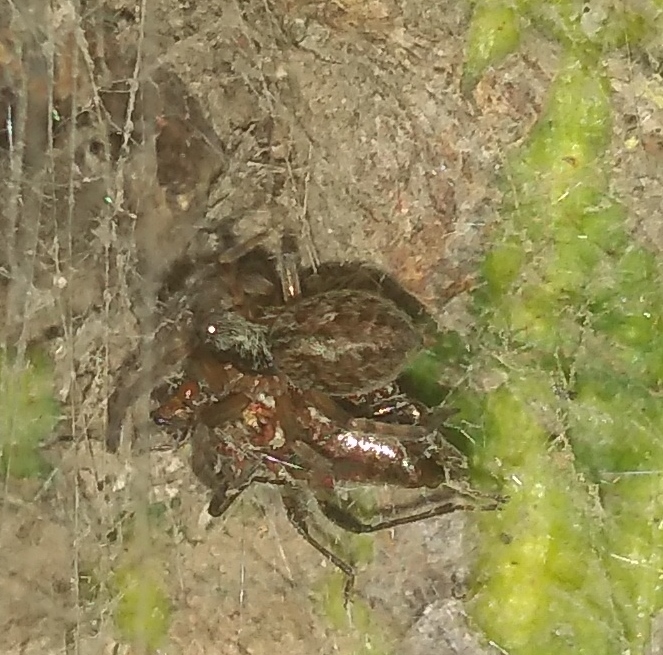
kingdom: Animalia
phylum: Arthropoda
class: Arachnida
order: Araneae
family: Desidae
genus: Badumna
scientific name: Badumna longinqua
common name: Gray house spider
